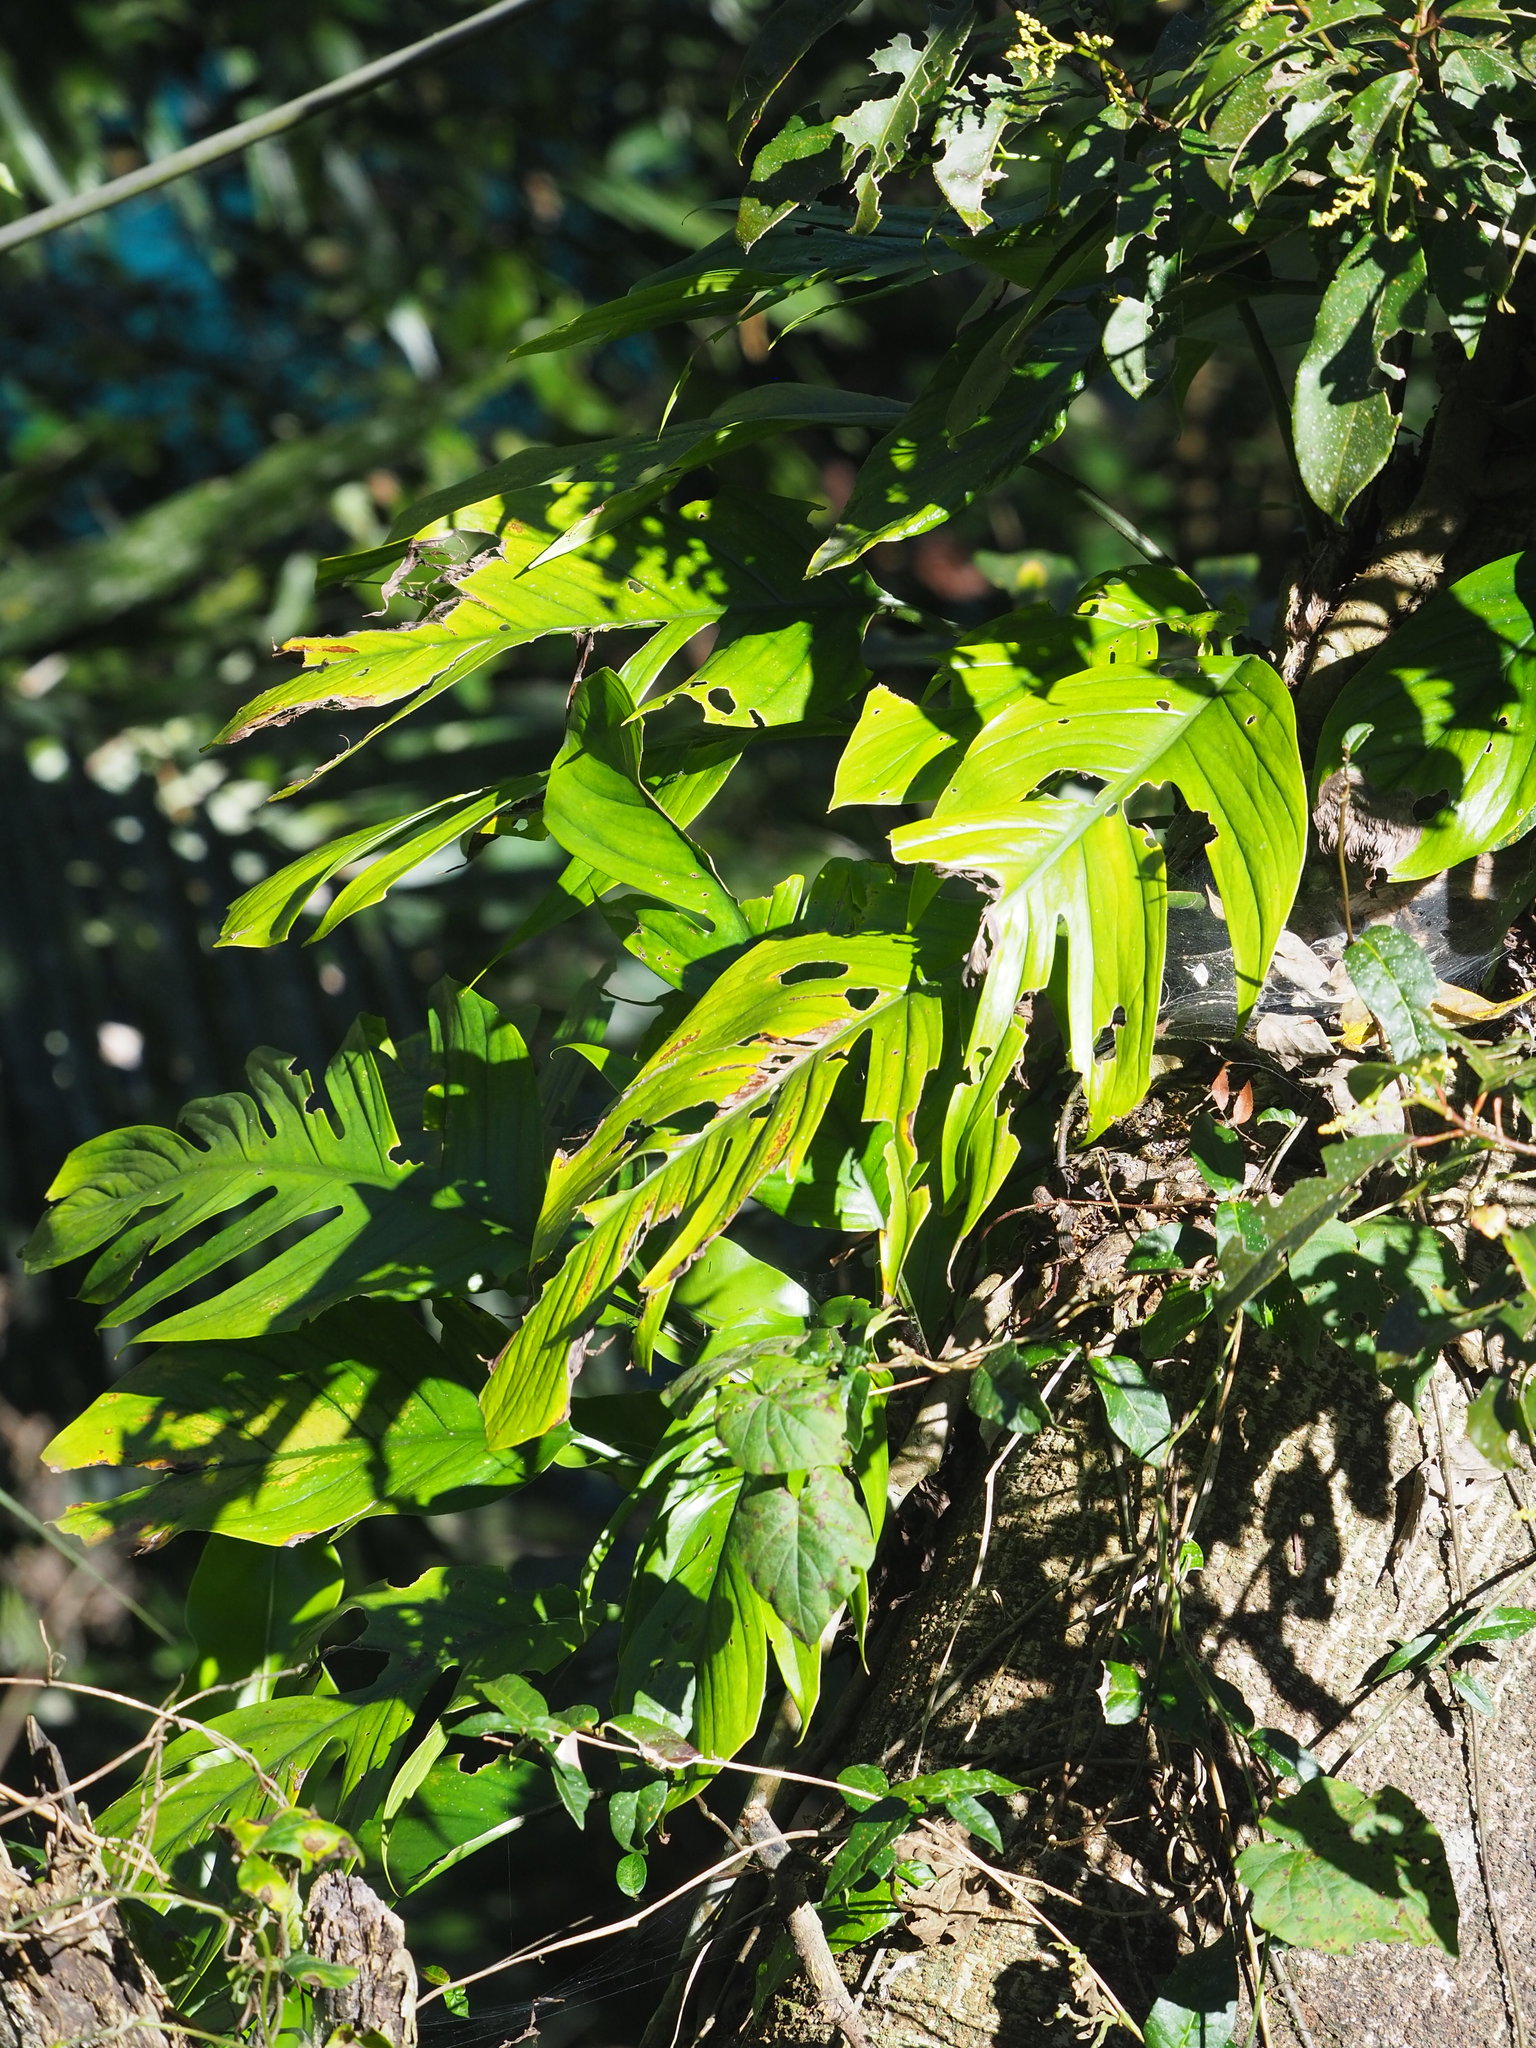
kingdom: Plantae
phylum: Tracheophyta
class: Liliopsida
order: Alismatales
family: Araceae
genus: Epipremnum
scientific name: Epipremnum pinnatum
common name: Centipede tongavine
